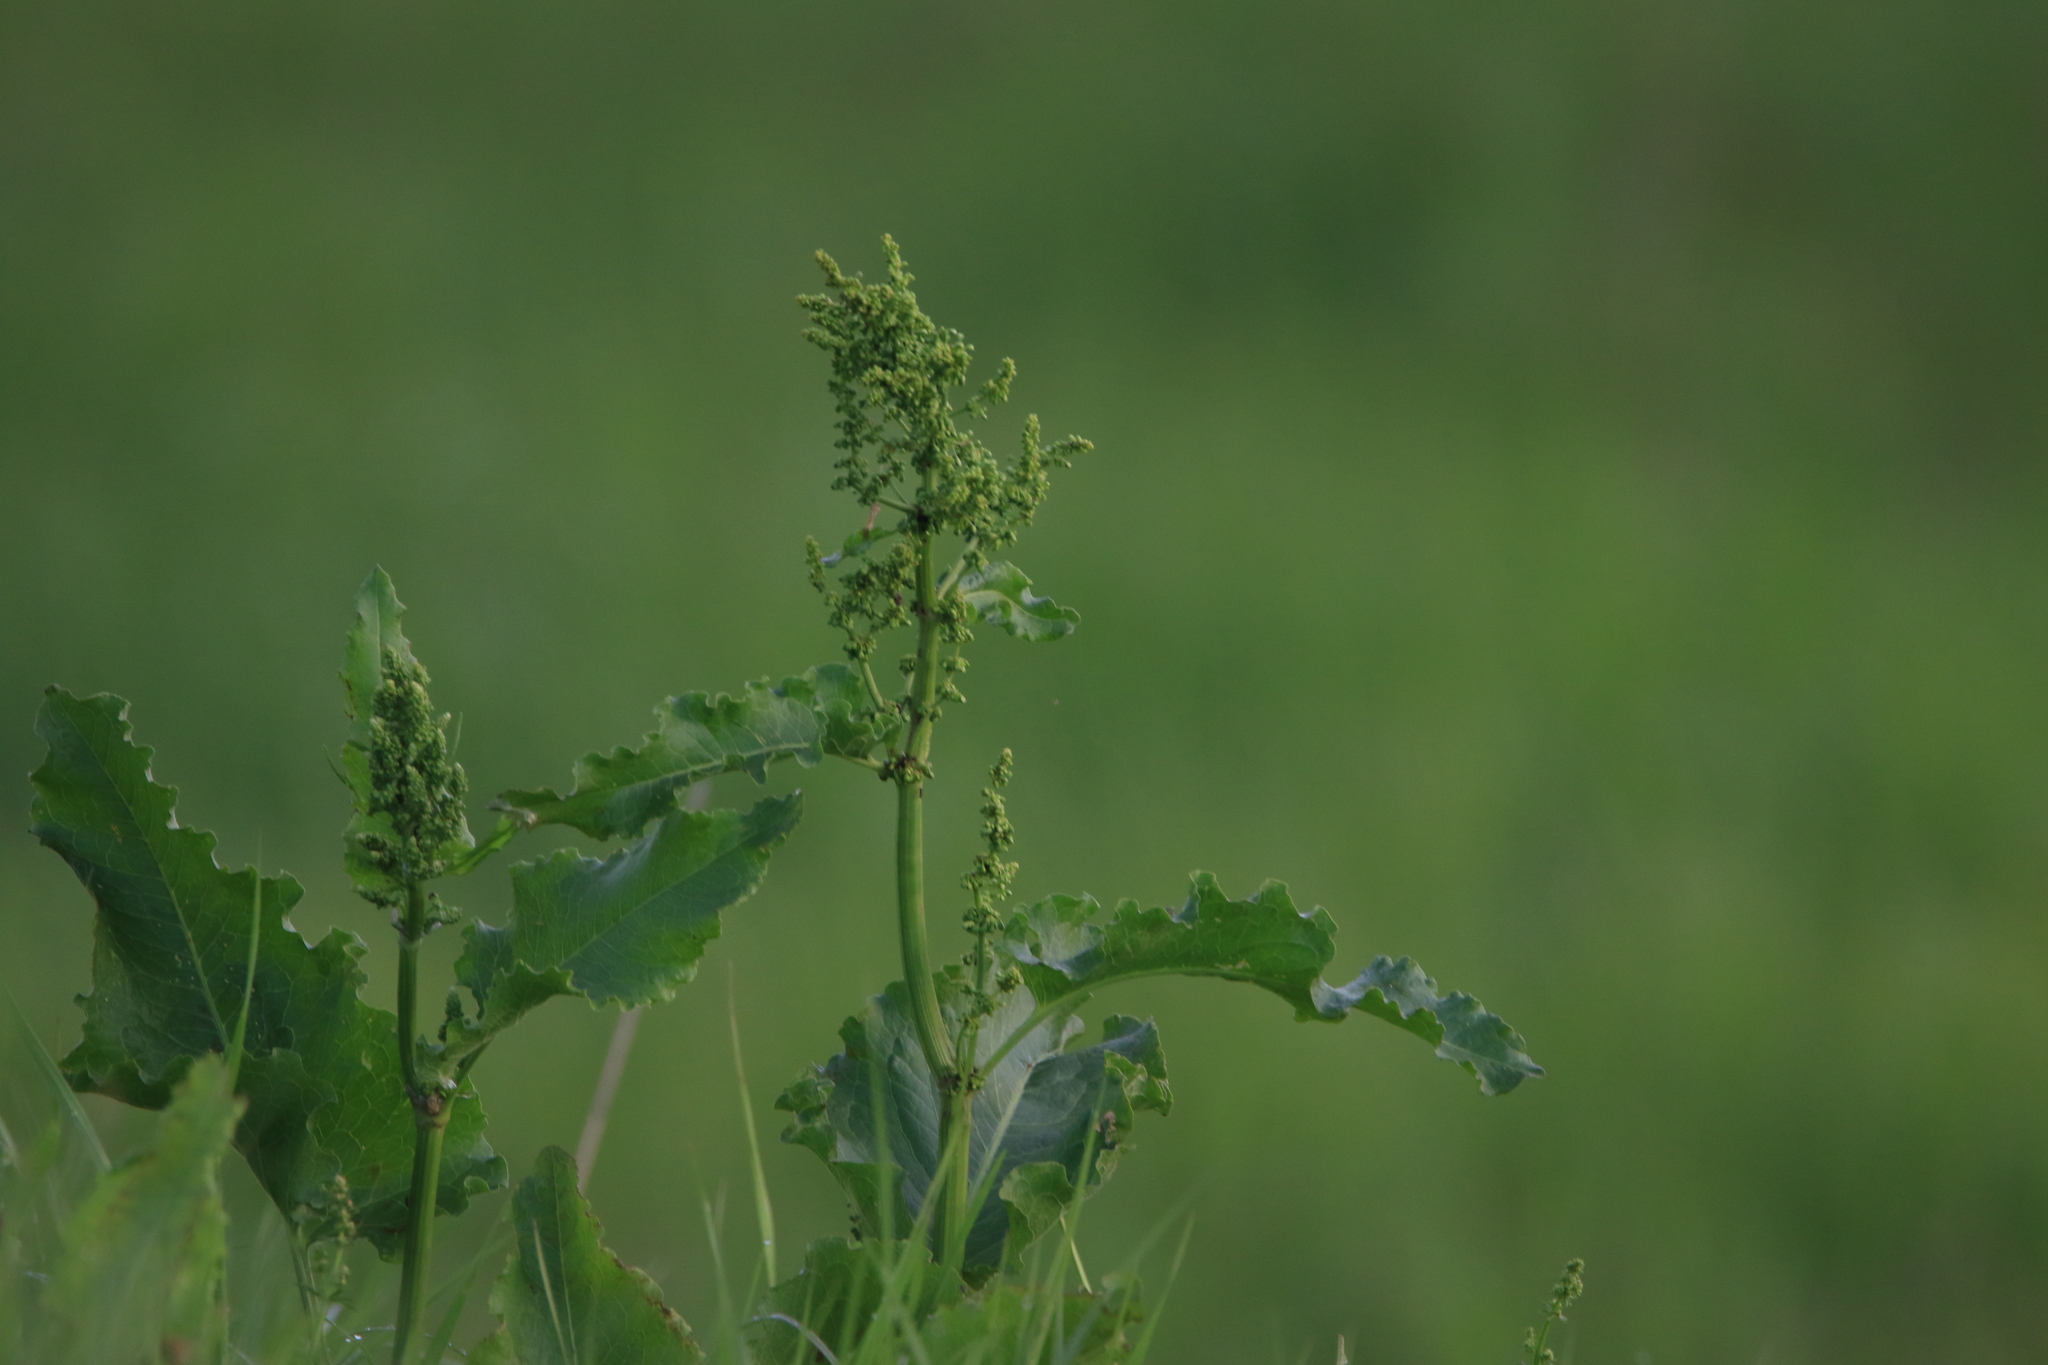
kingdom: Plantae
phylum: Tracheophyta
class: Magnoliopsida
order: Caryophyllales
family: Polygonaceae
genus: Rumex
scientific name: Rumex confertus
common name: Russian dock
